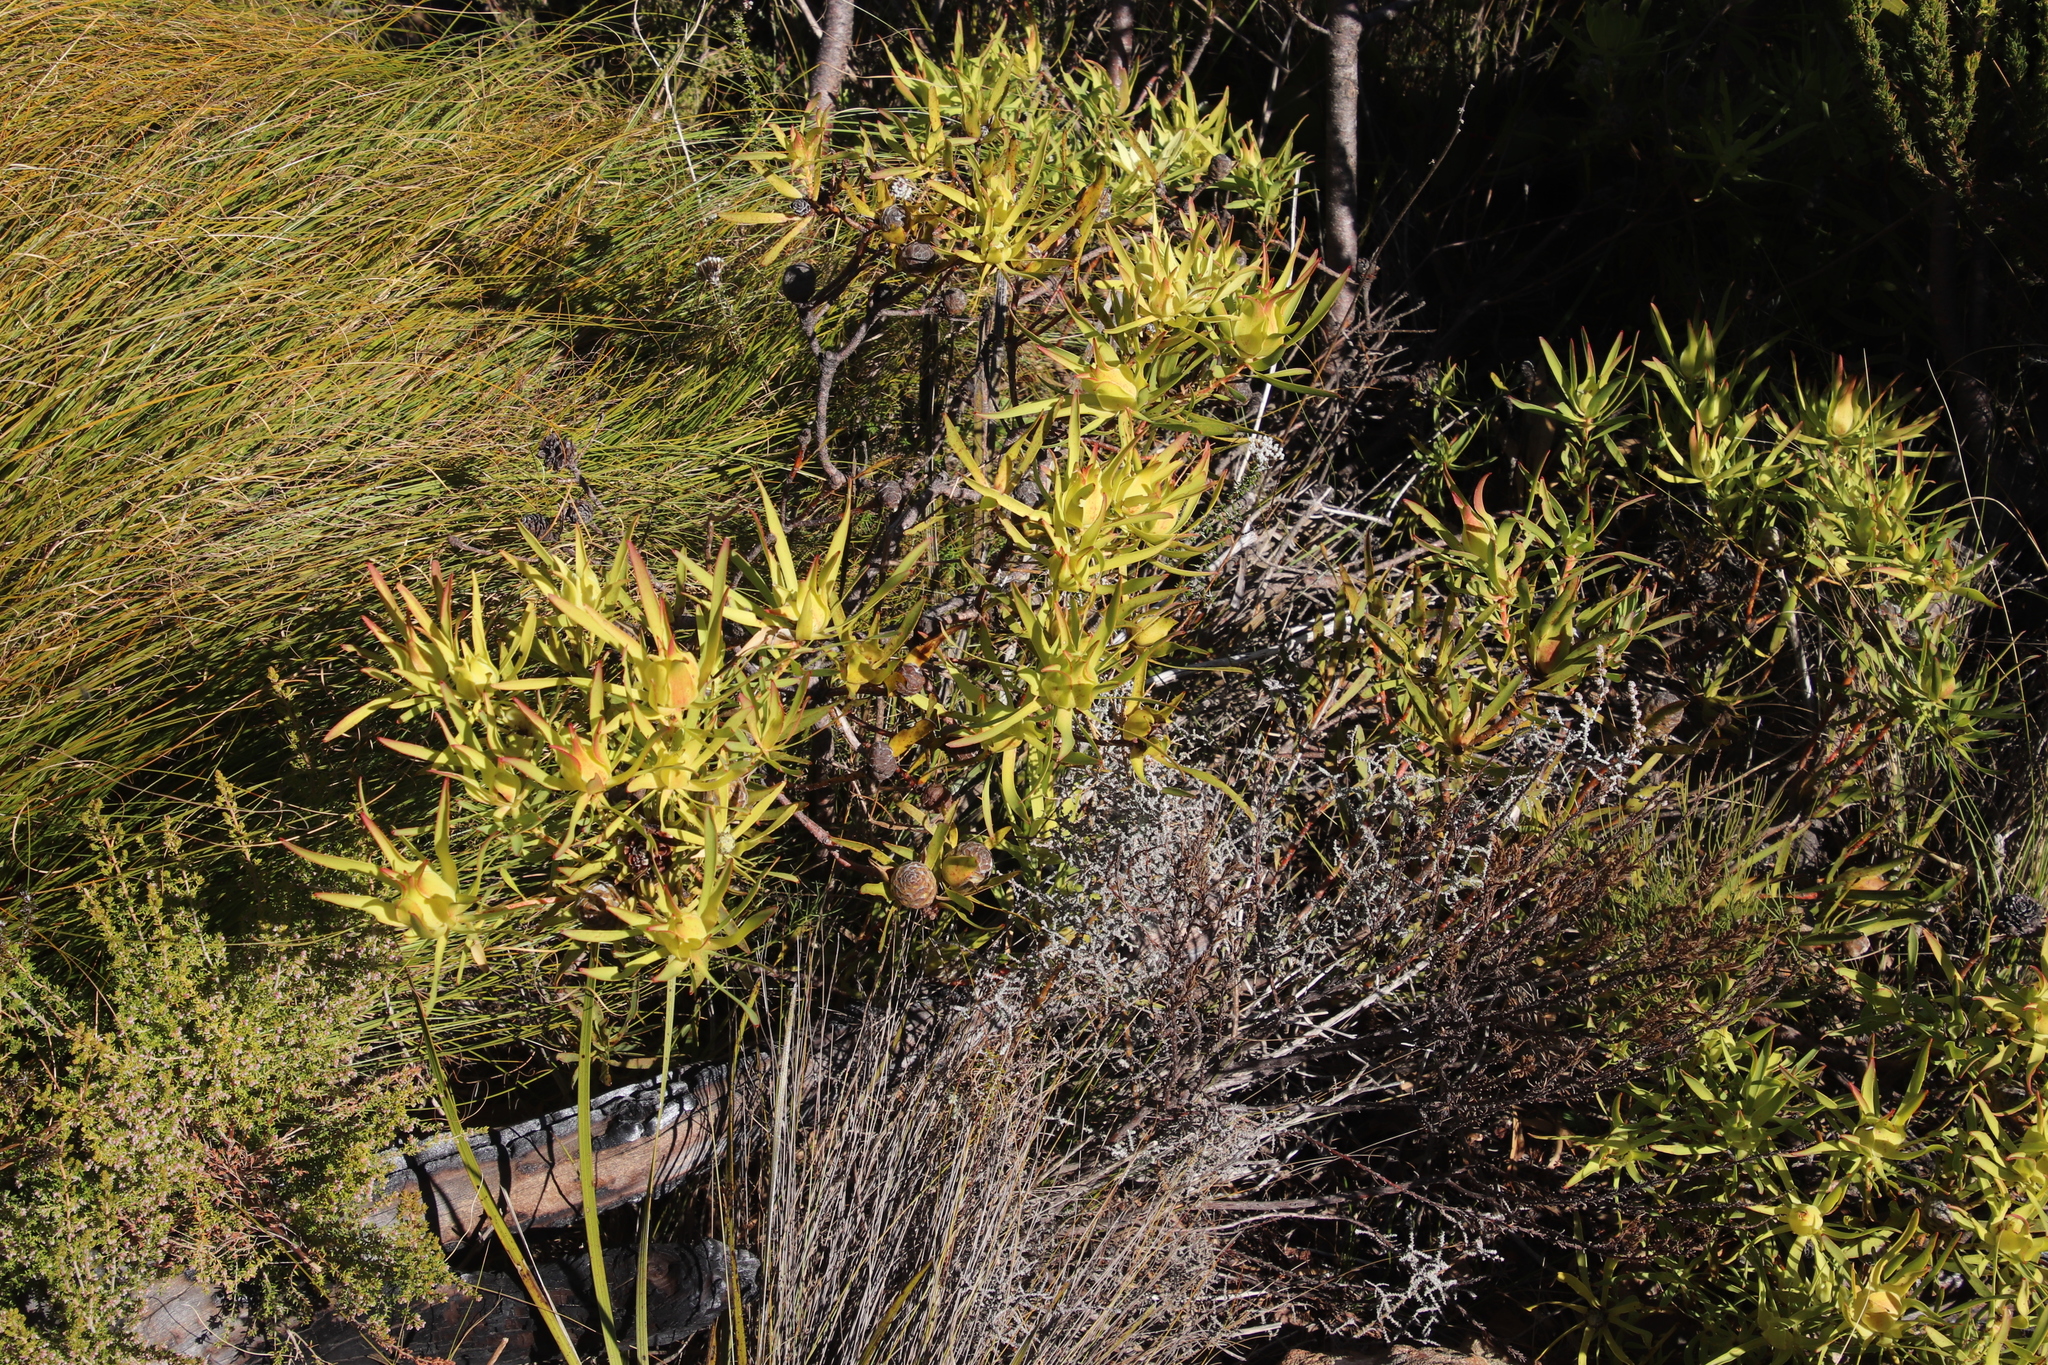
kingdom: Plantae
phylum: Tracheophyta
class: Magnoliopsida
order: Proteales
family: Proteaceae
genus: Leucadendron
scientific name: Leucadendron salignum
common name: Common sunshine conebush
